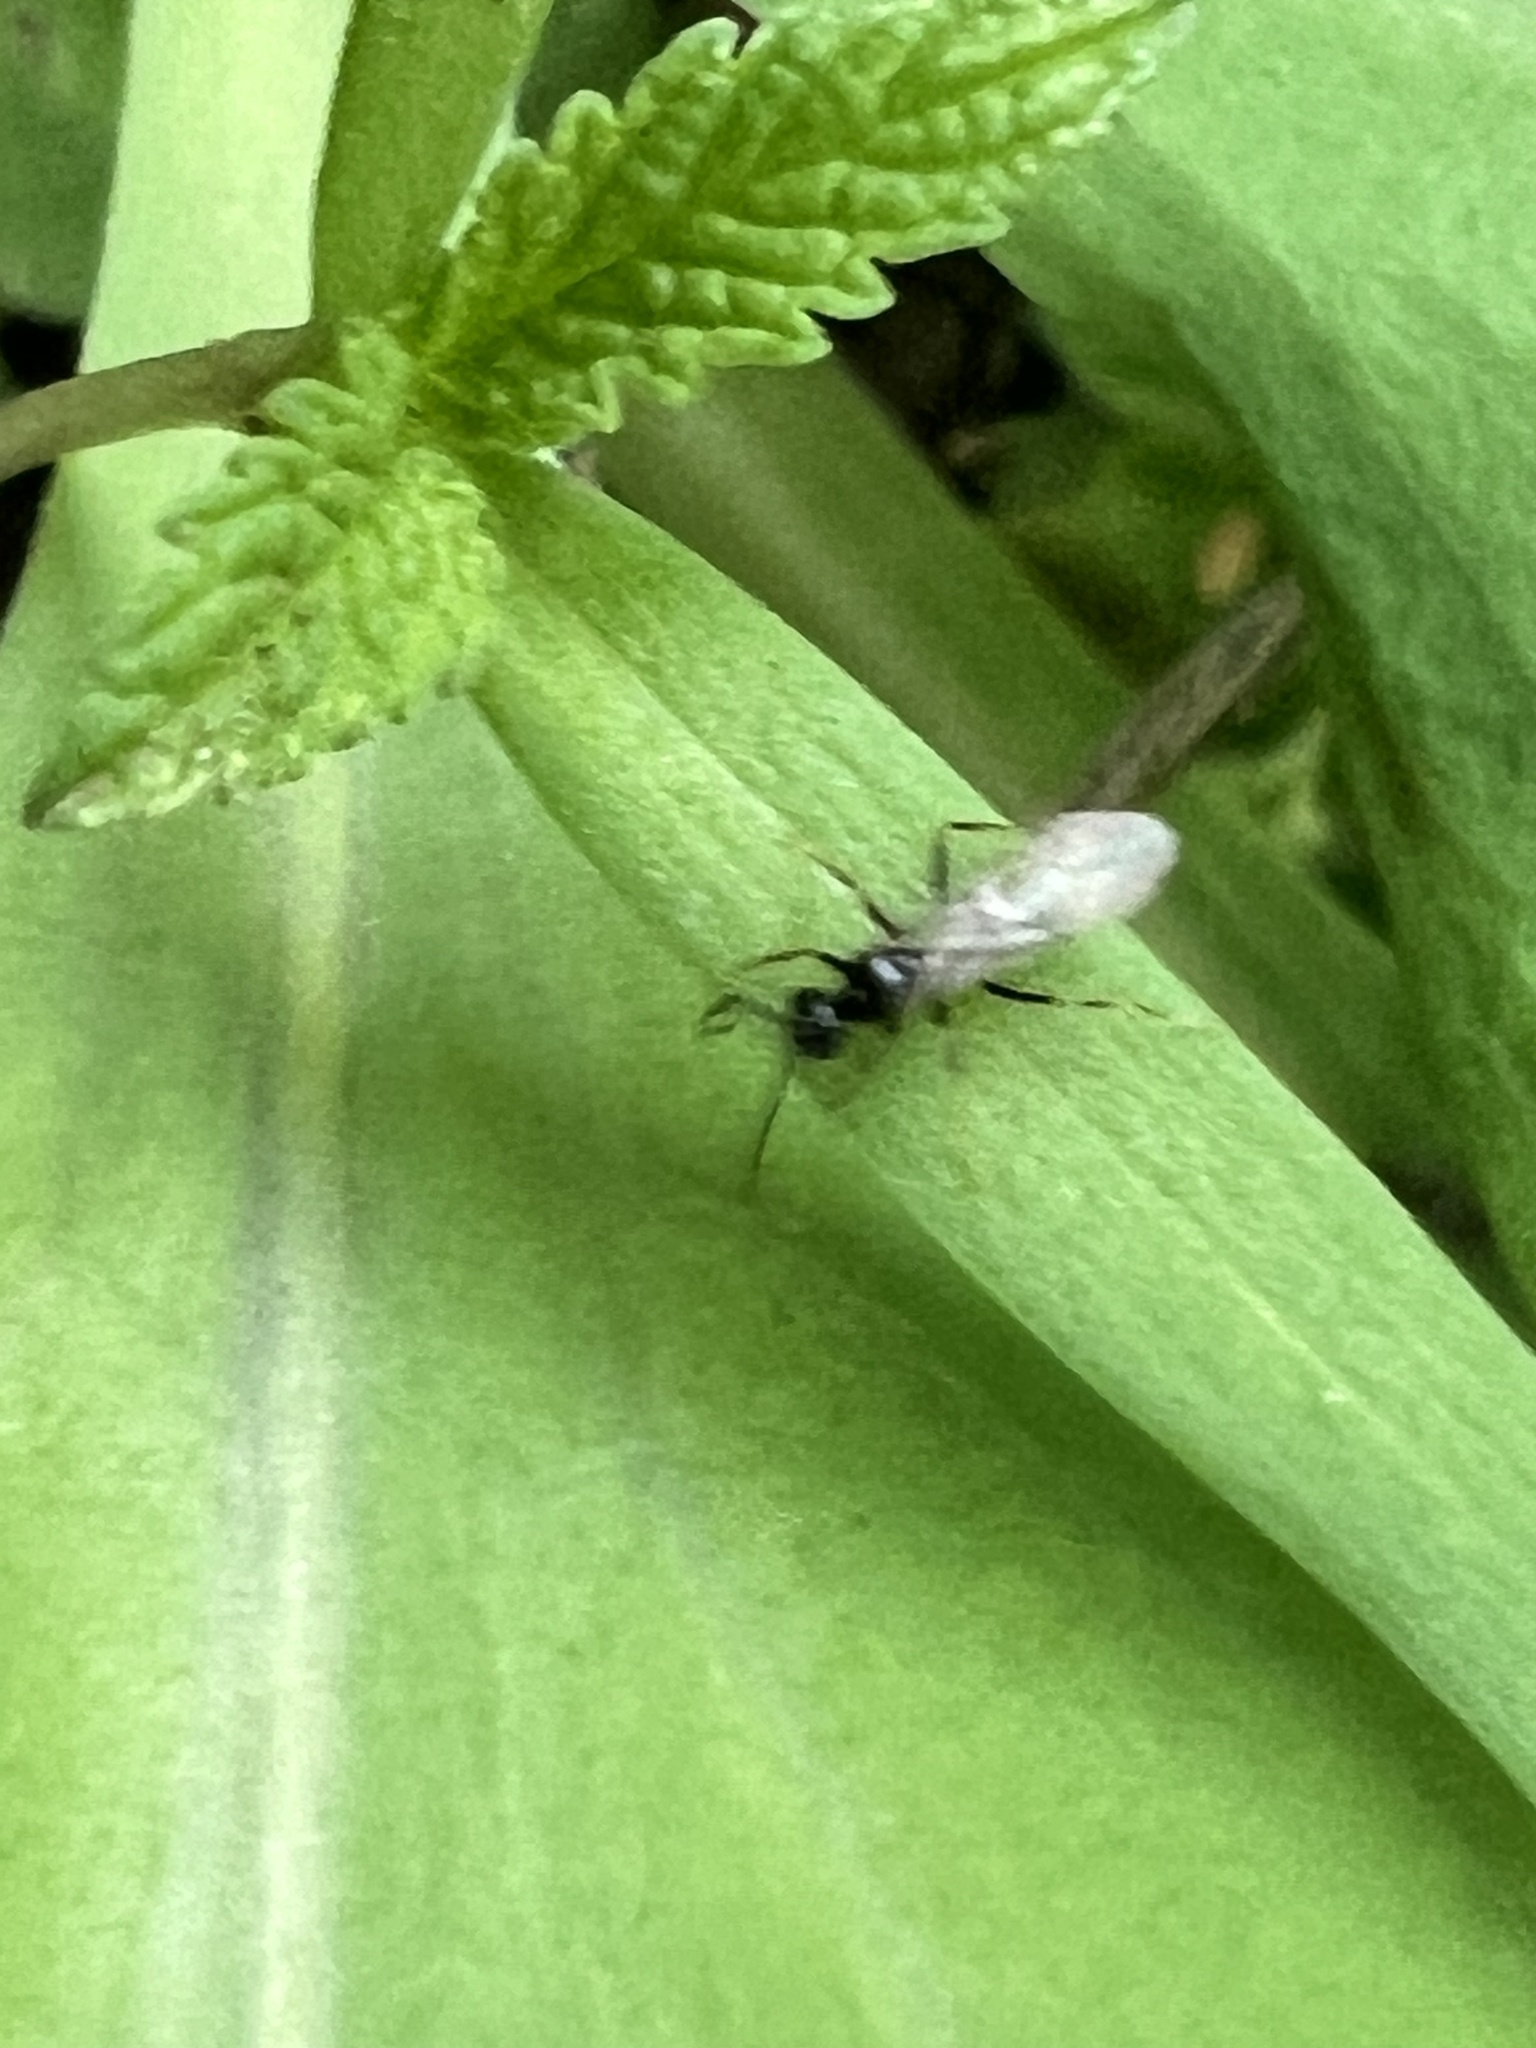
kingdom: Animalia
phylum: Arthropoda
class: Insecta
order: Hymenoptera
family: Formicidae
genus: Prenolepis
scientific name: Prenolepis imparis
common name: Small honey ant
